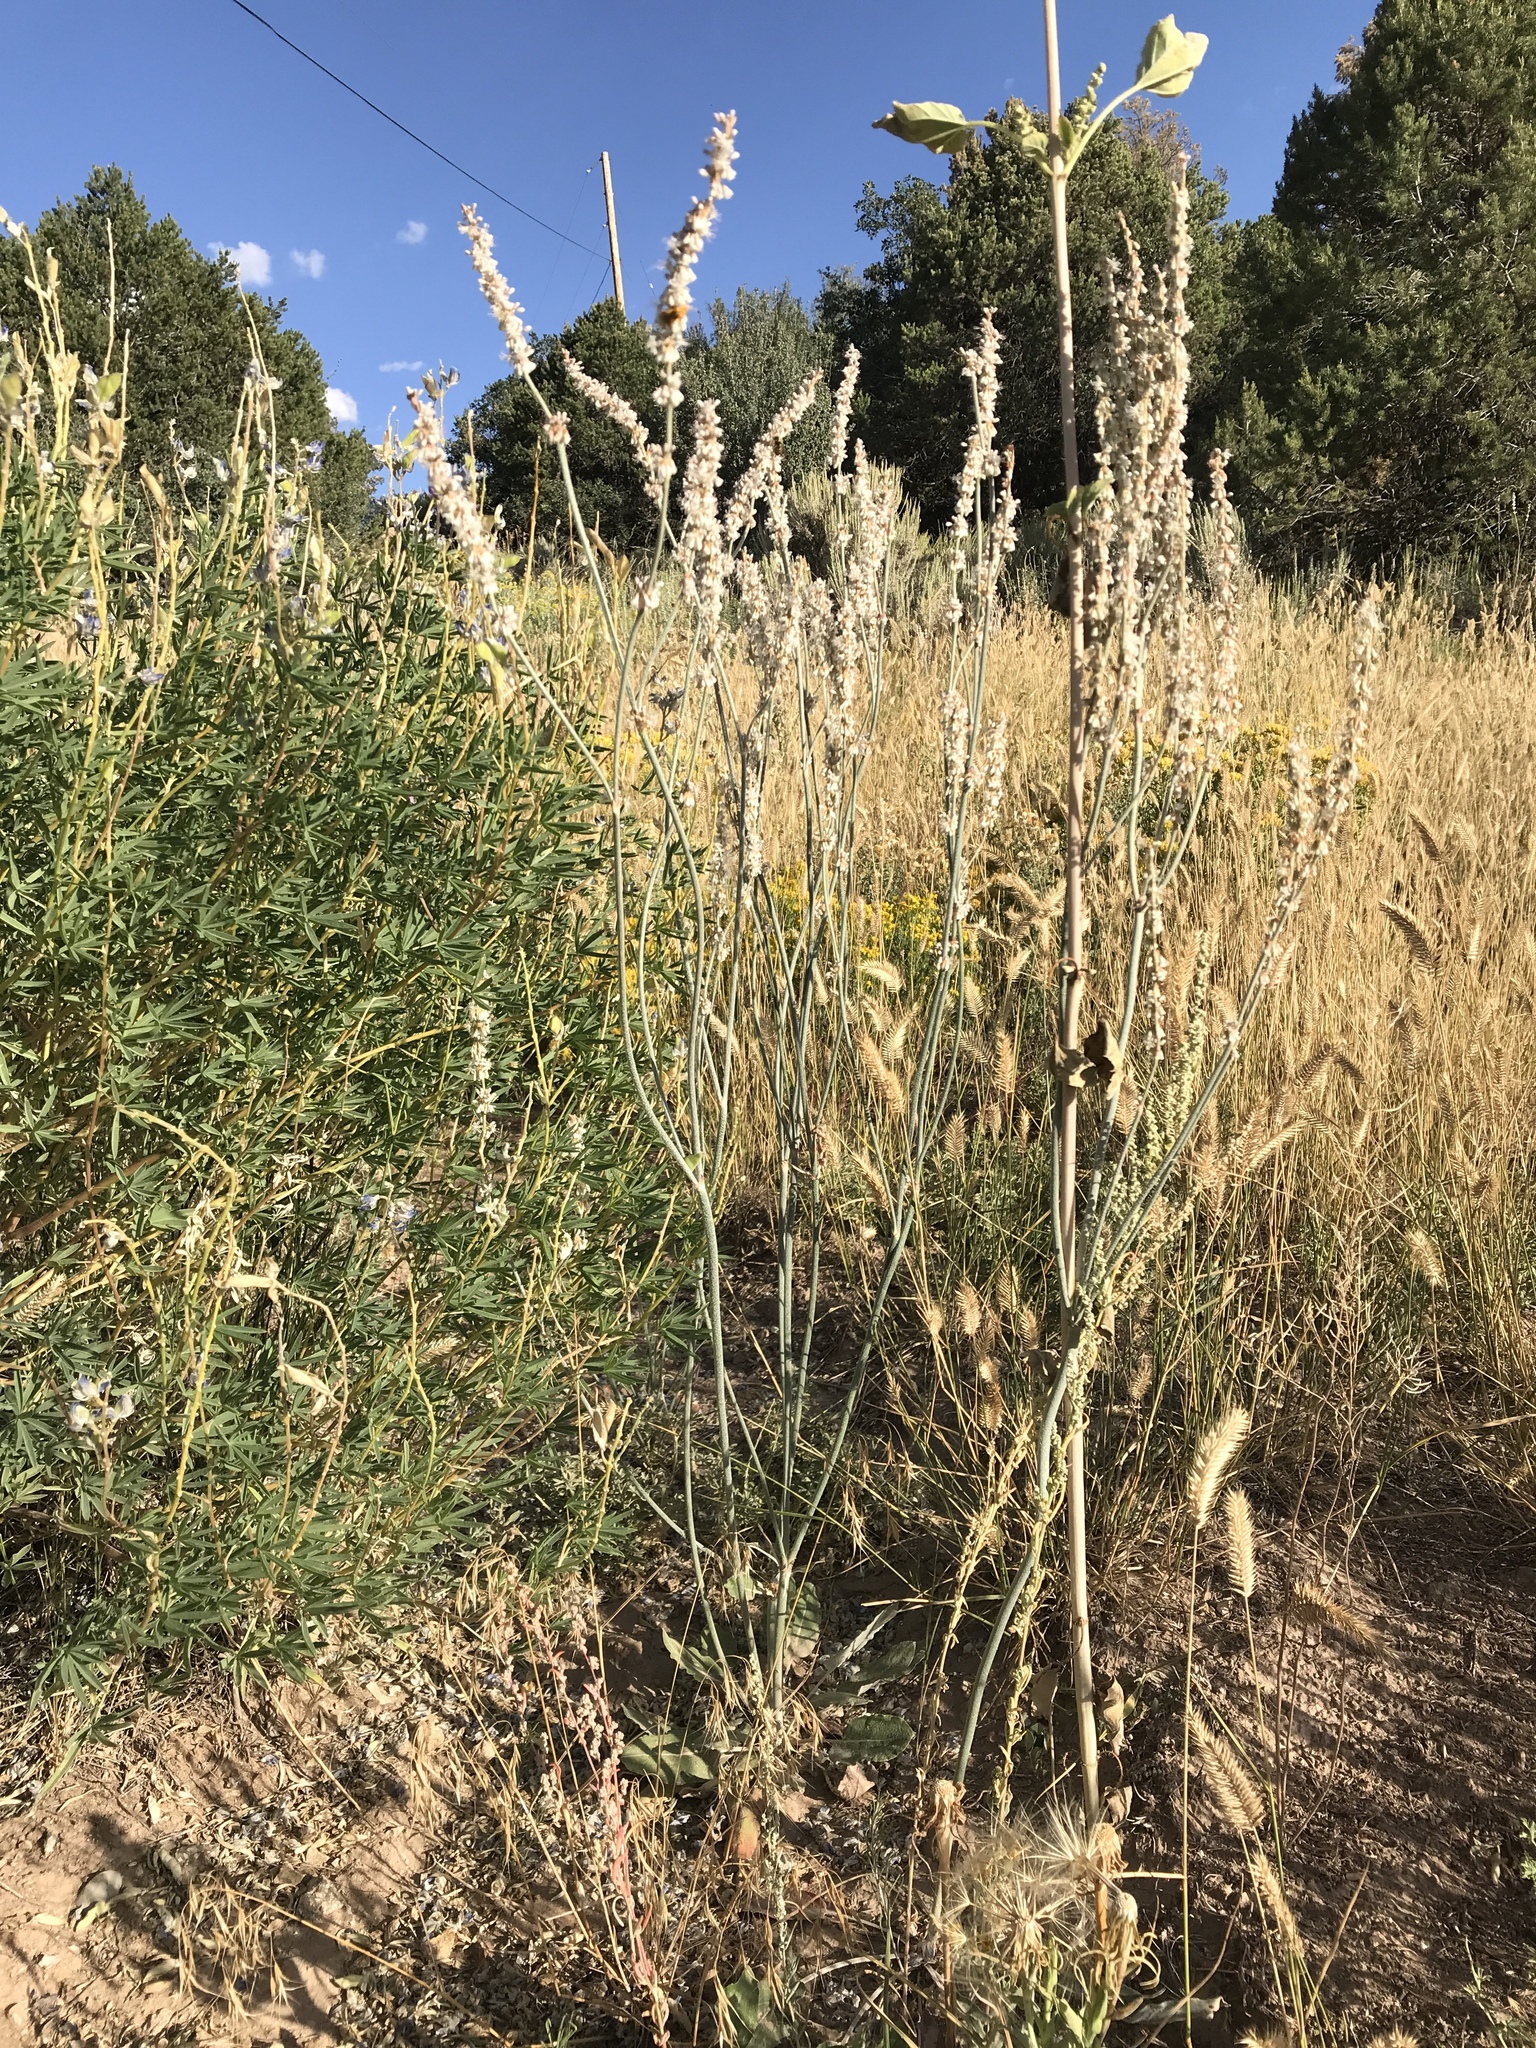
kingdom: Plantae
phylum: Tracheophyta
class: Magnoliopsida
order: Caryophyllales
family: Polygonaceae
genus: Eriogonum
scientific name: Eriogonum racemosum
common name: Redroot wild buckwheat
